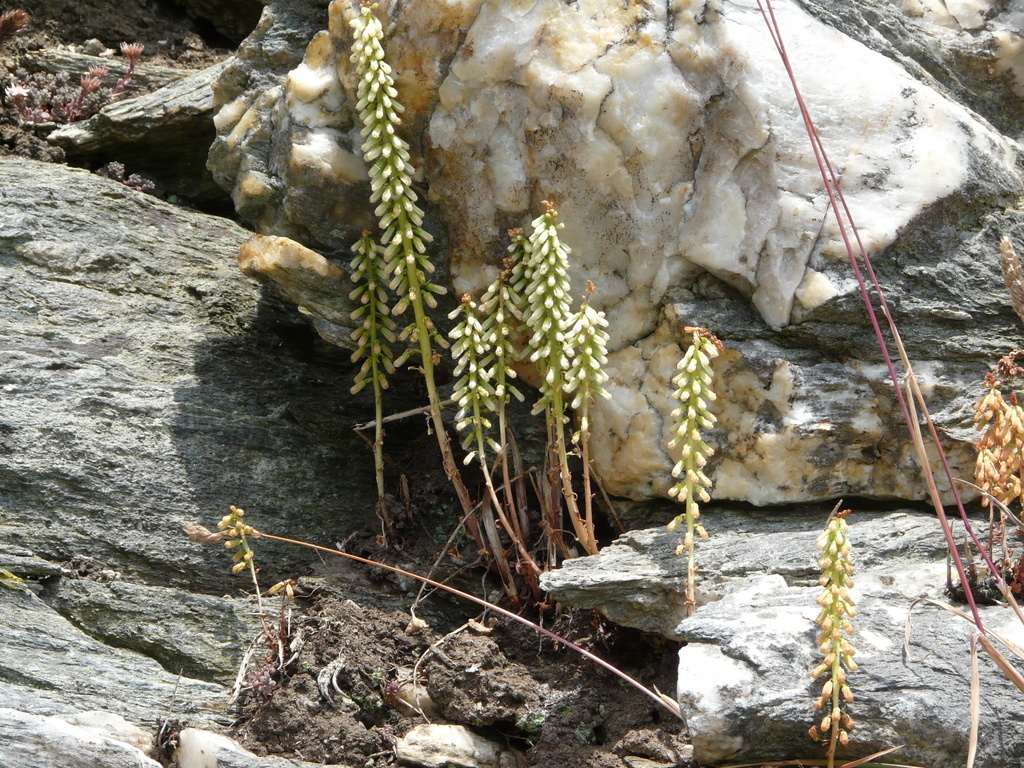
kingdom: Plantae
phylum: Tracheophyta
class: Magnoliopsida
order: Saxifragales
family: Crassulaceae
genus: Umbilicus
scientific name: Umbilicus rupestris
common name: Navelwort
